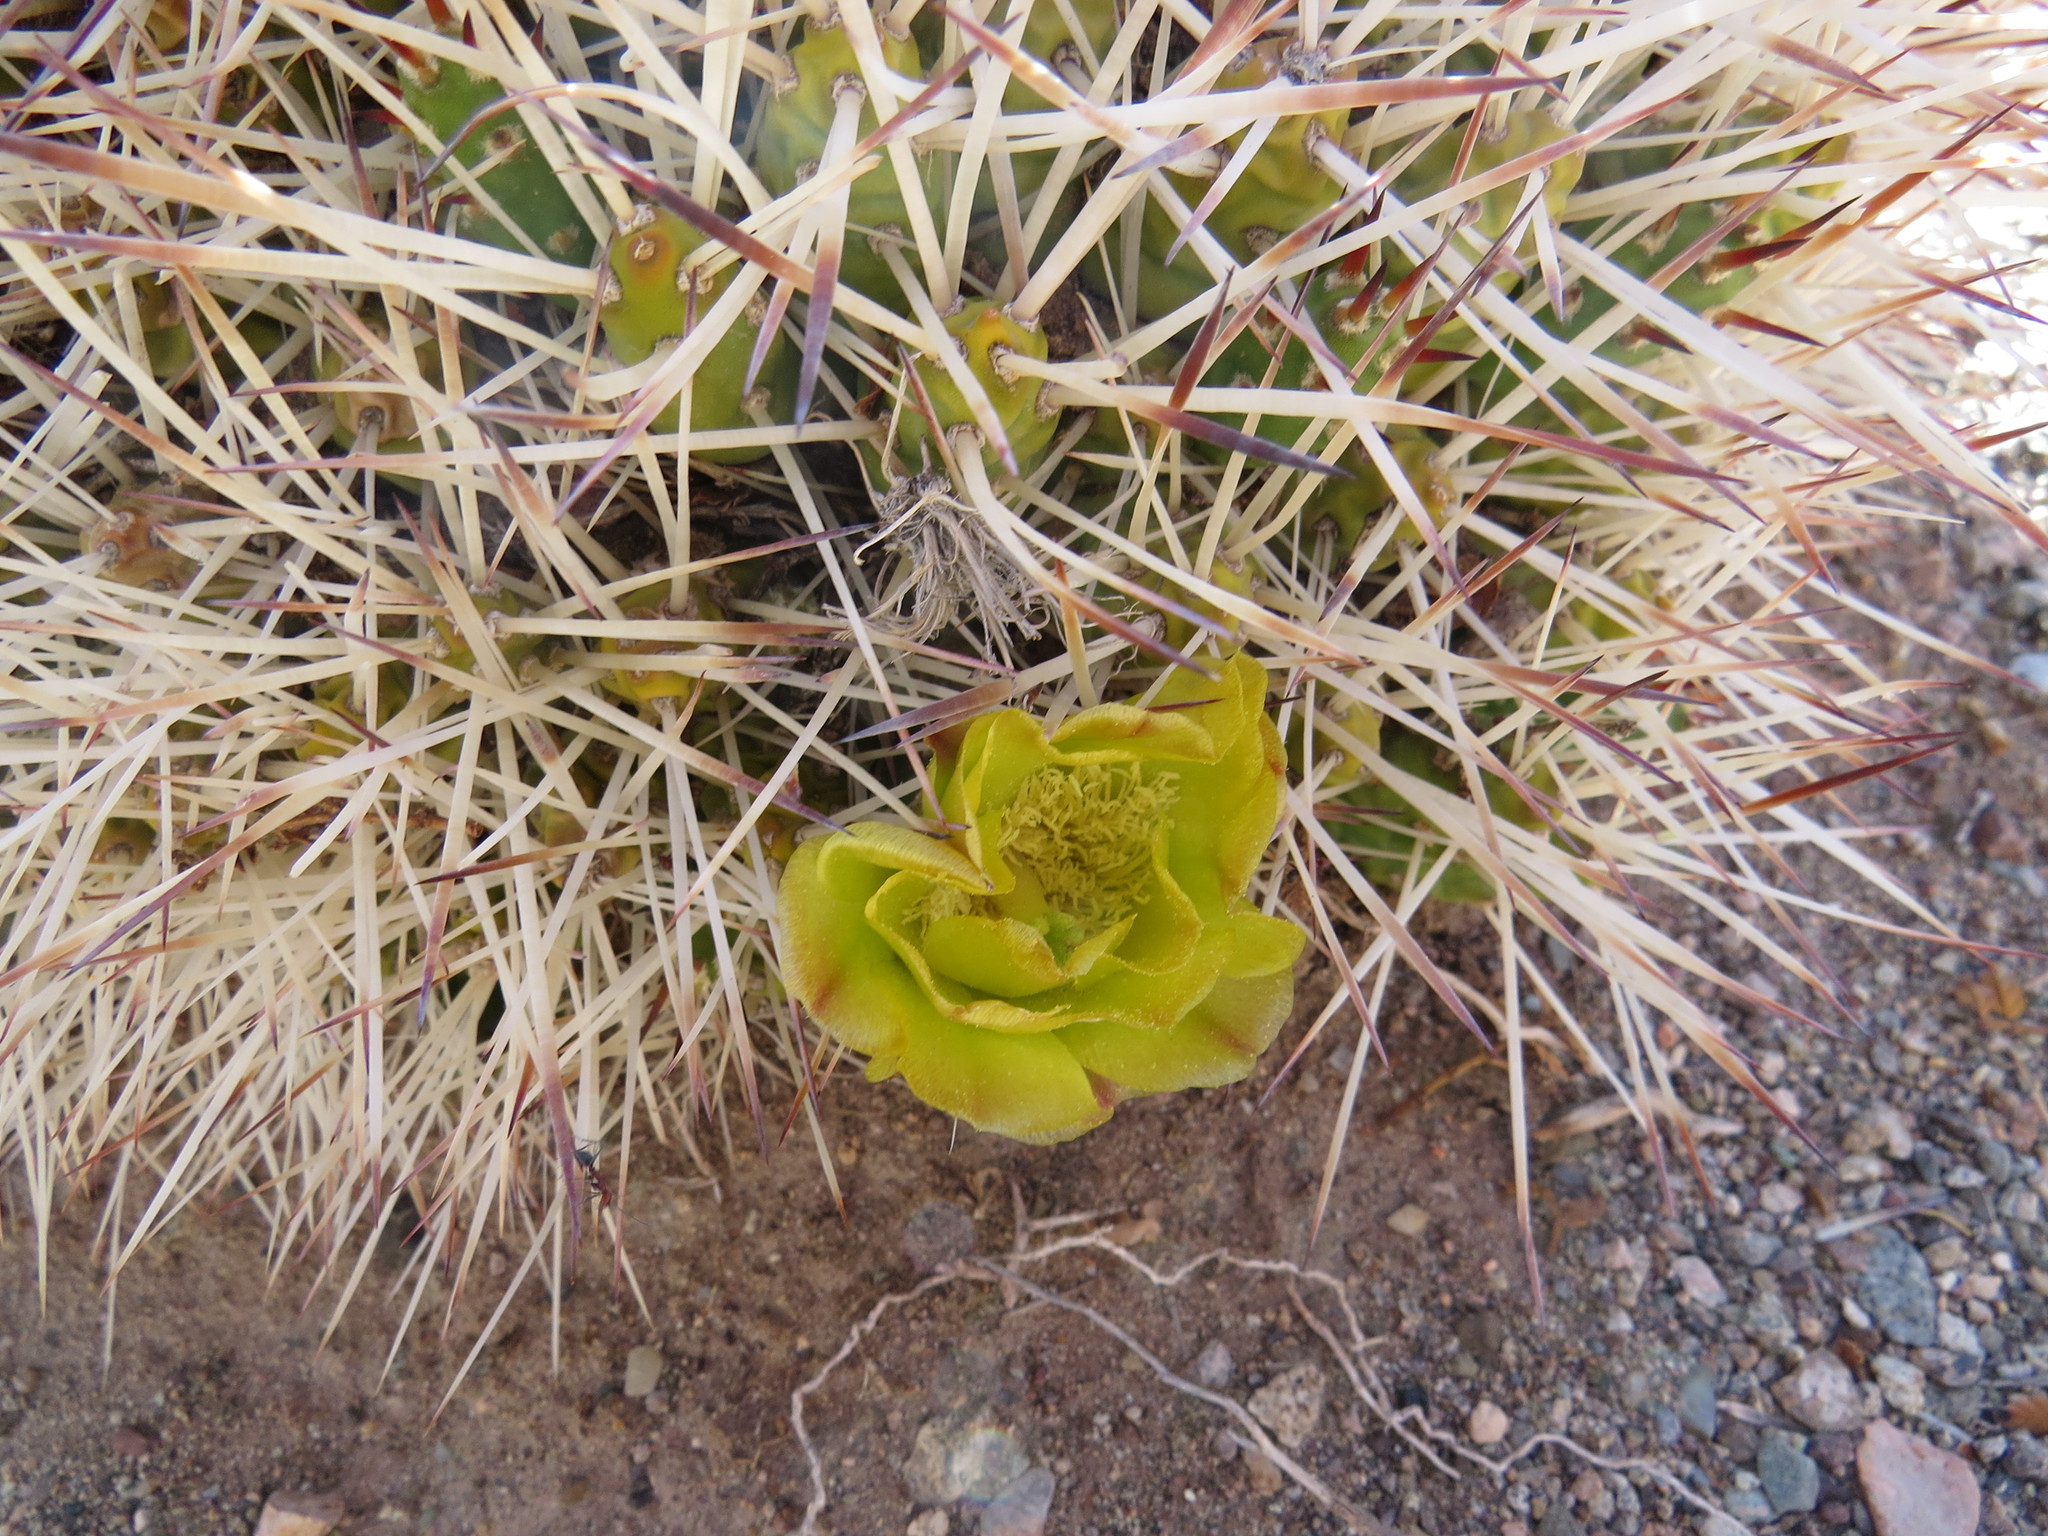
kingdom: Plantae
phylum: Tracheophyta
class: Magnoliopsida
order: Caryophyllales
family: Cactaceae
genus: Maihueniopsis
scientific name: Maihueniopsis glomerata
